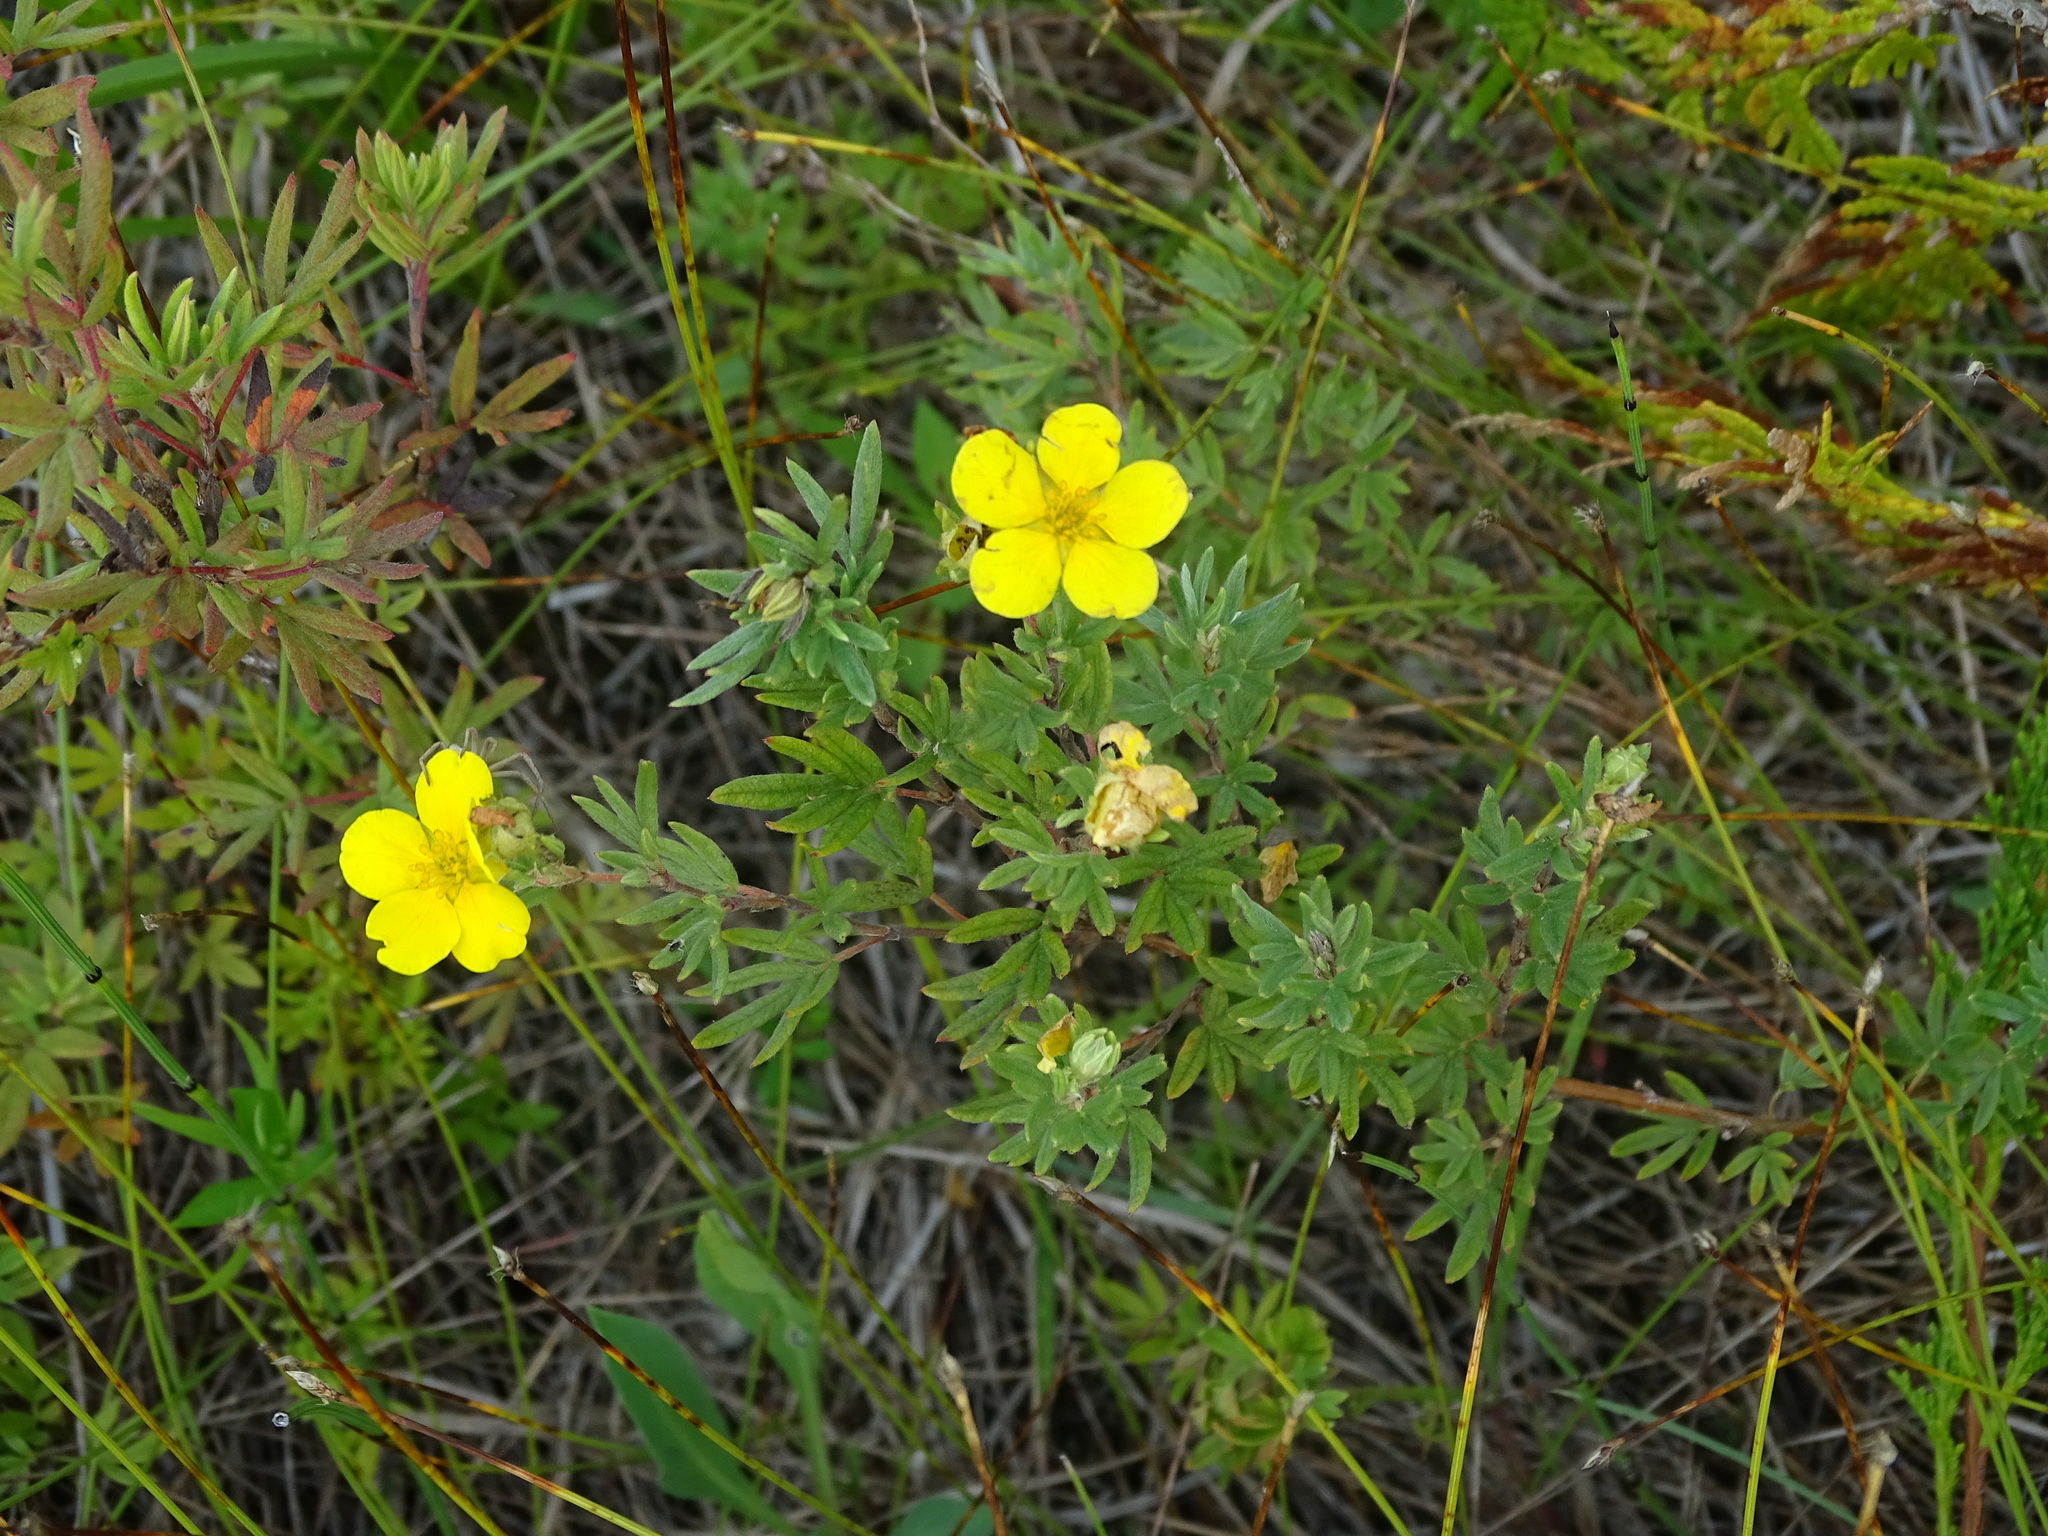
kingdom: Plantae
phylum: Tracheophyta
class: Magnoliopsida
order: Rosales
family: Rosaceae
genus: Dasiphora
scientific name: Dasiphora fruticosa
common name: Shrubby cinquefoil
